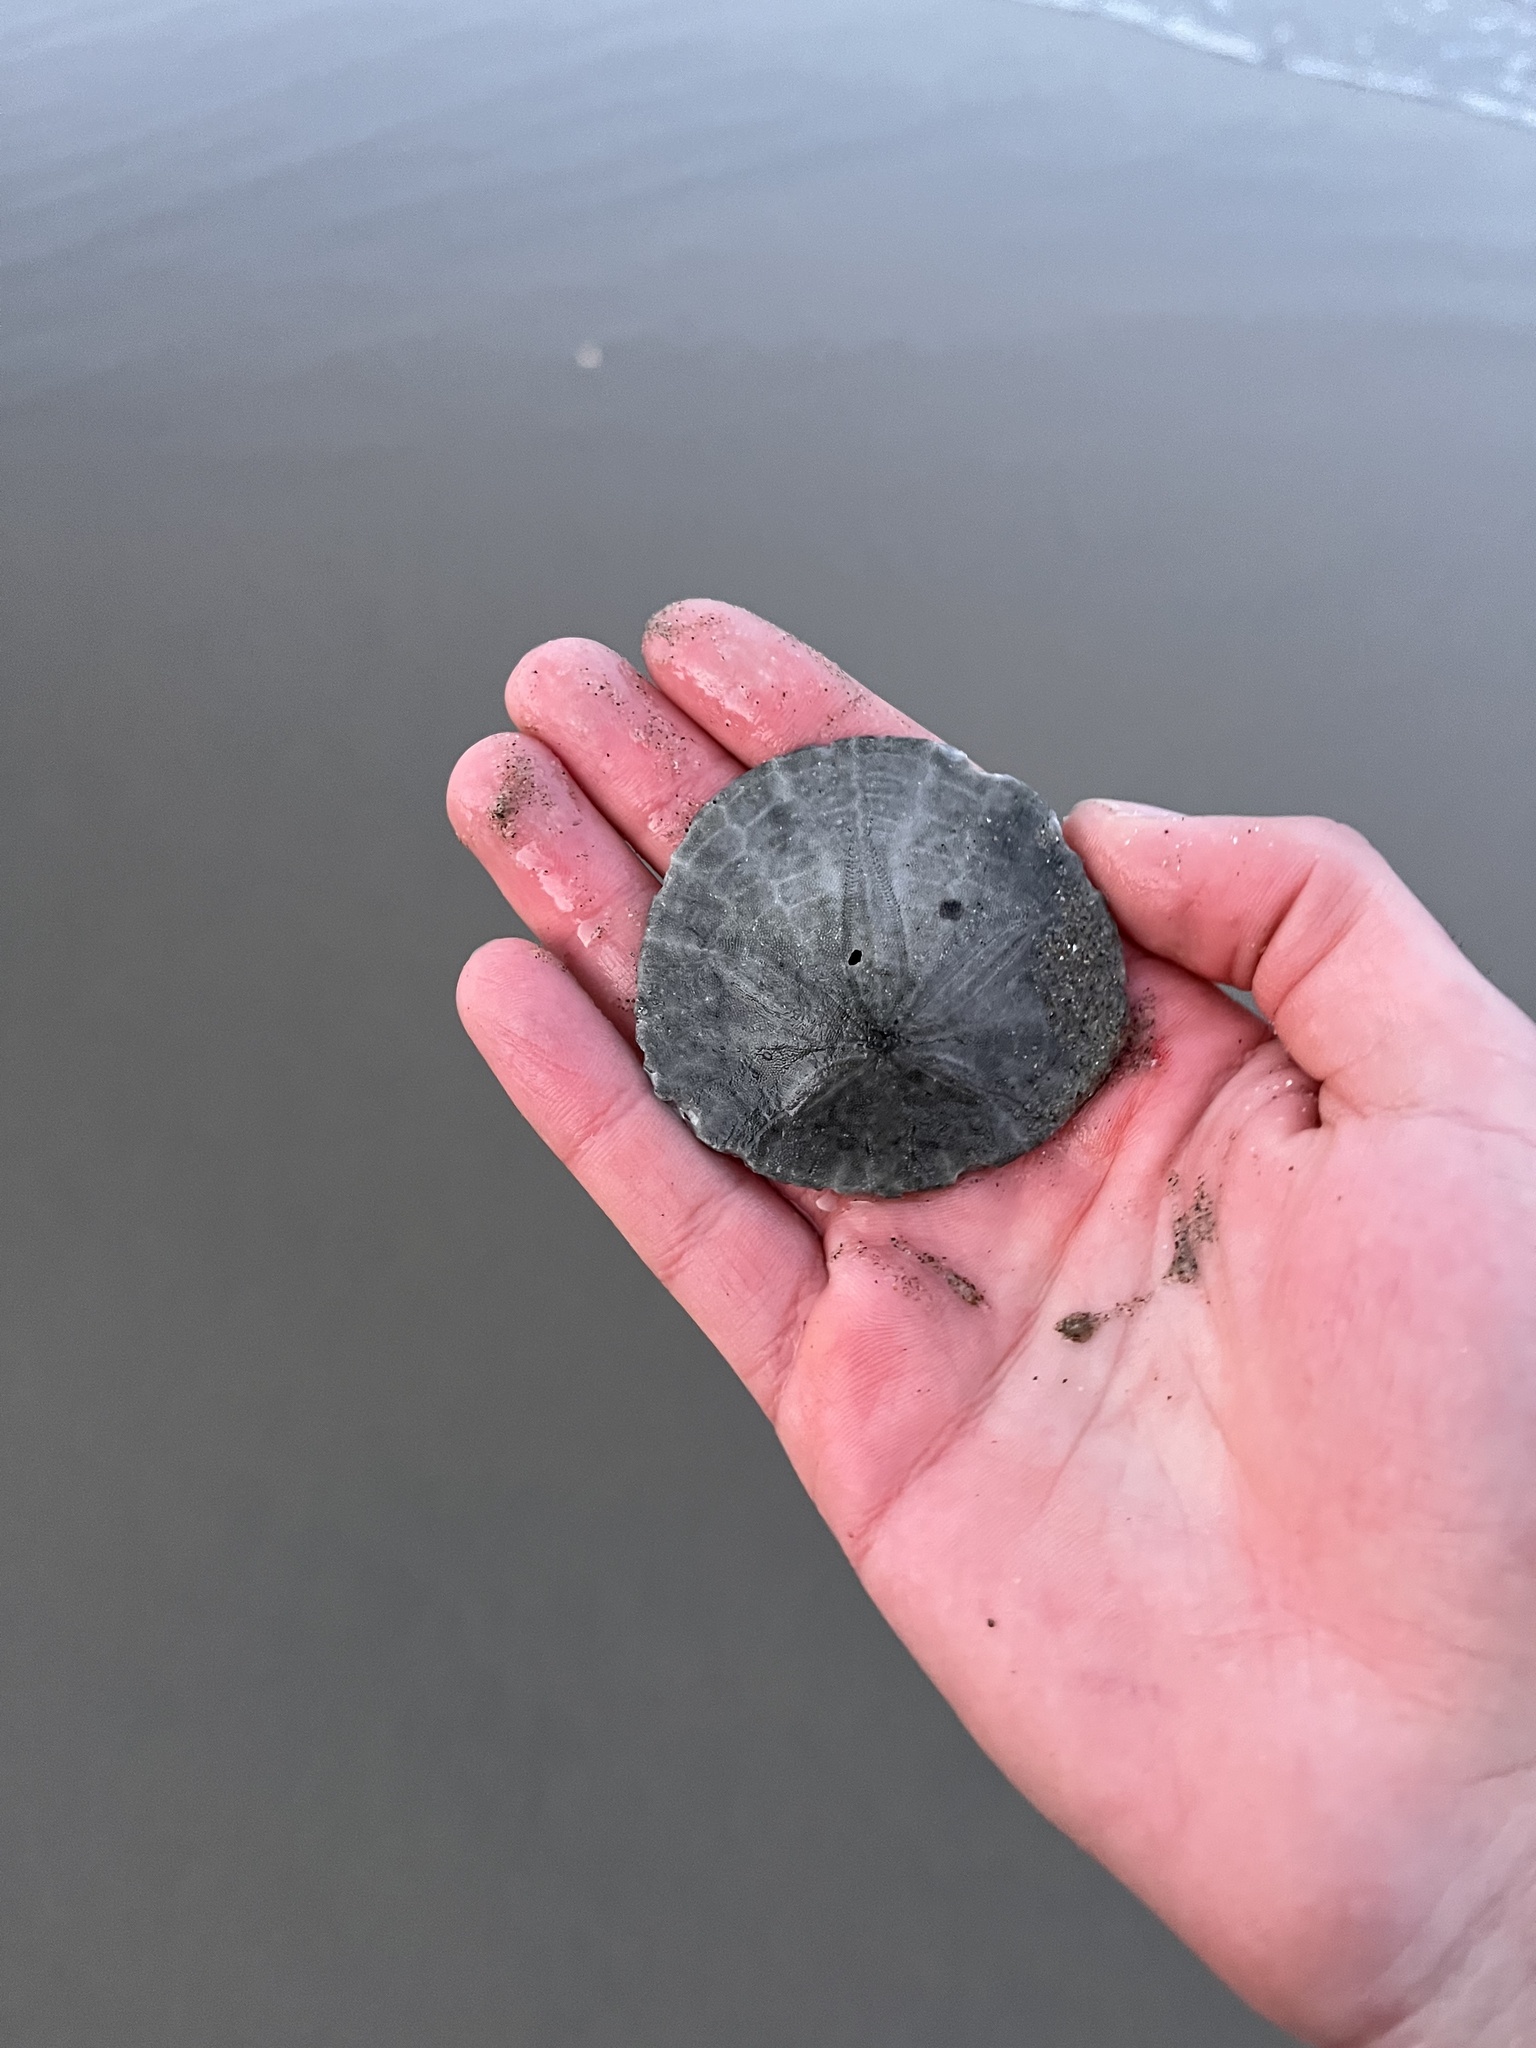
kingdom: Animalia
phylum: Echinodermata
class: Echinoidea
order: Echinolampadacea
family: Dendrasteridae
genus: Dendraster
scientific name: Dendraster excentricus
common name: Eccentric sand dollar sea urchin
